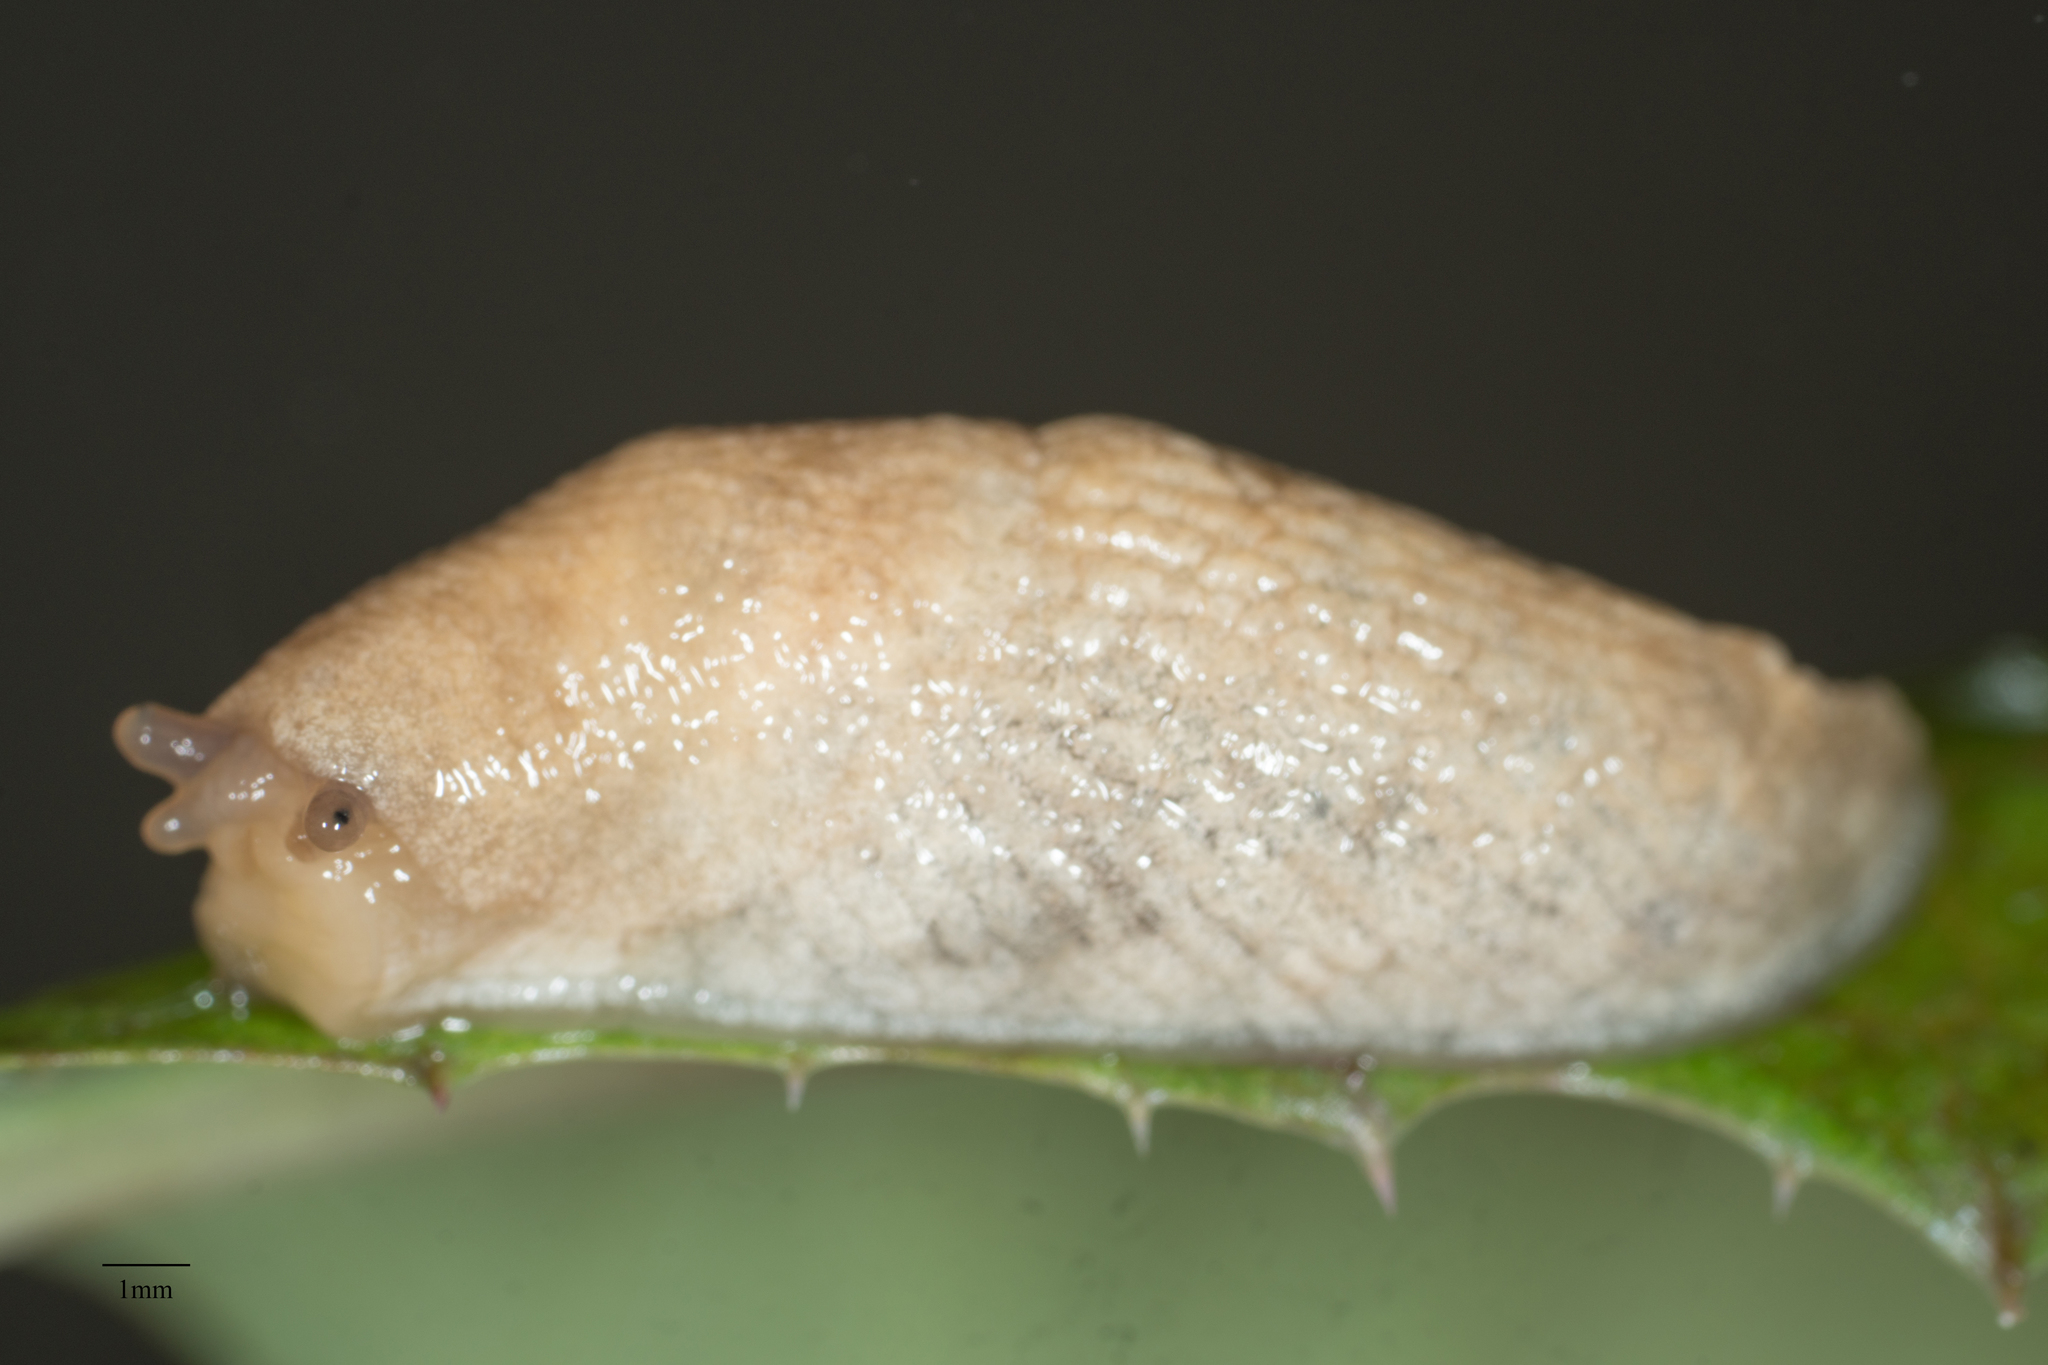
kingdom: Animalia
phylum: Mollusca
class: Gastropoda
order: Stylommatophora
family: Agriolimacidae
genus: Deroceras
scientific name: Deroceras reticulatum
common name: Gray field slug
